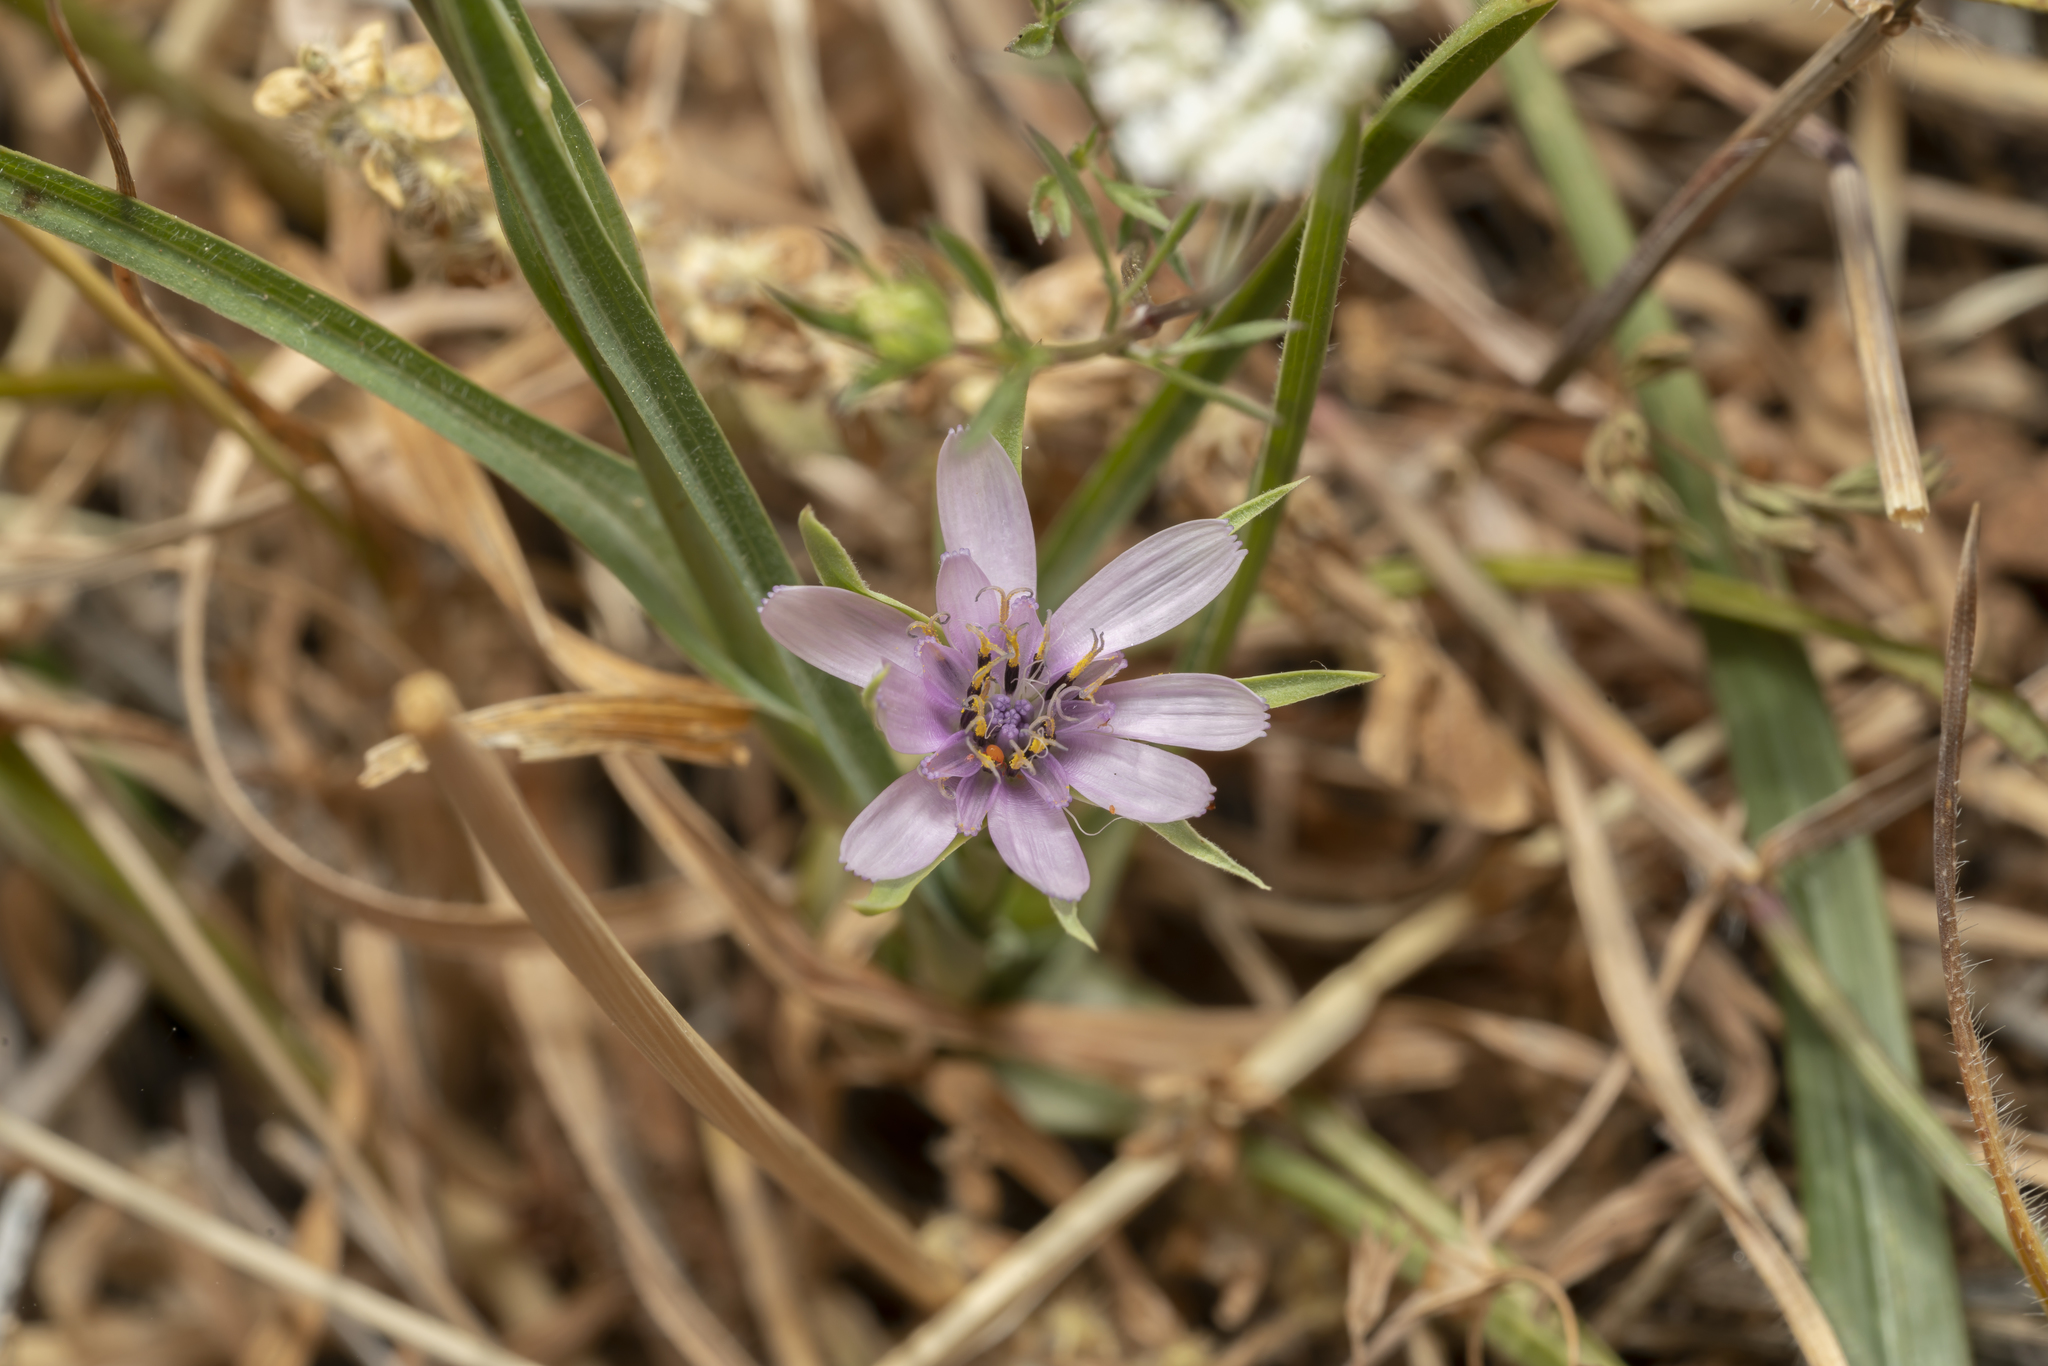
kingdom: Plantae
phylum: Tracheophyta
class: Magnoliopsida
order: Asterales
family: Asteraceae
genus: Geropogon
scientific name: Geropogon hybridus
